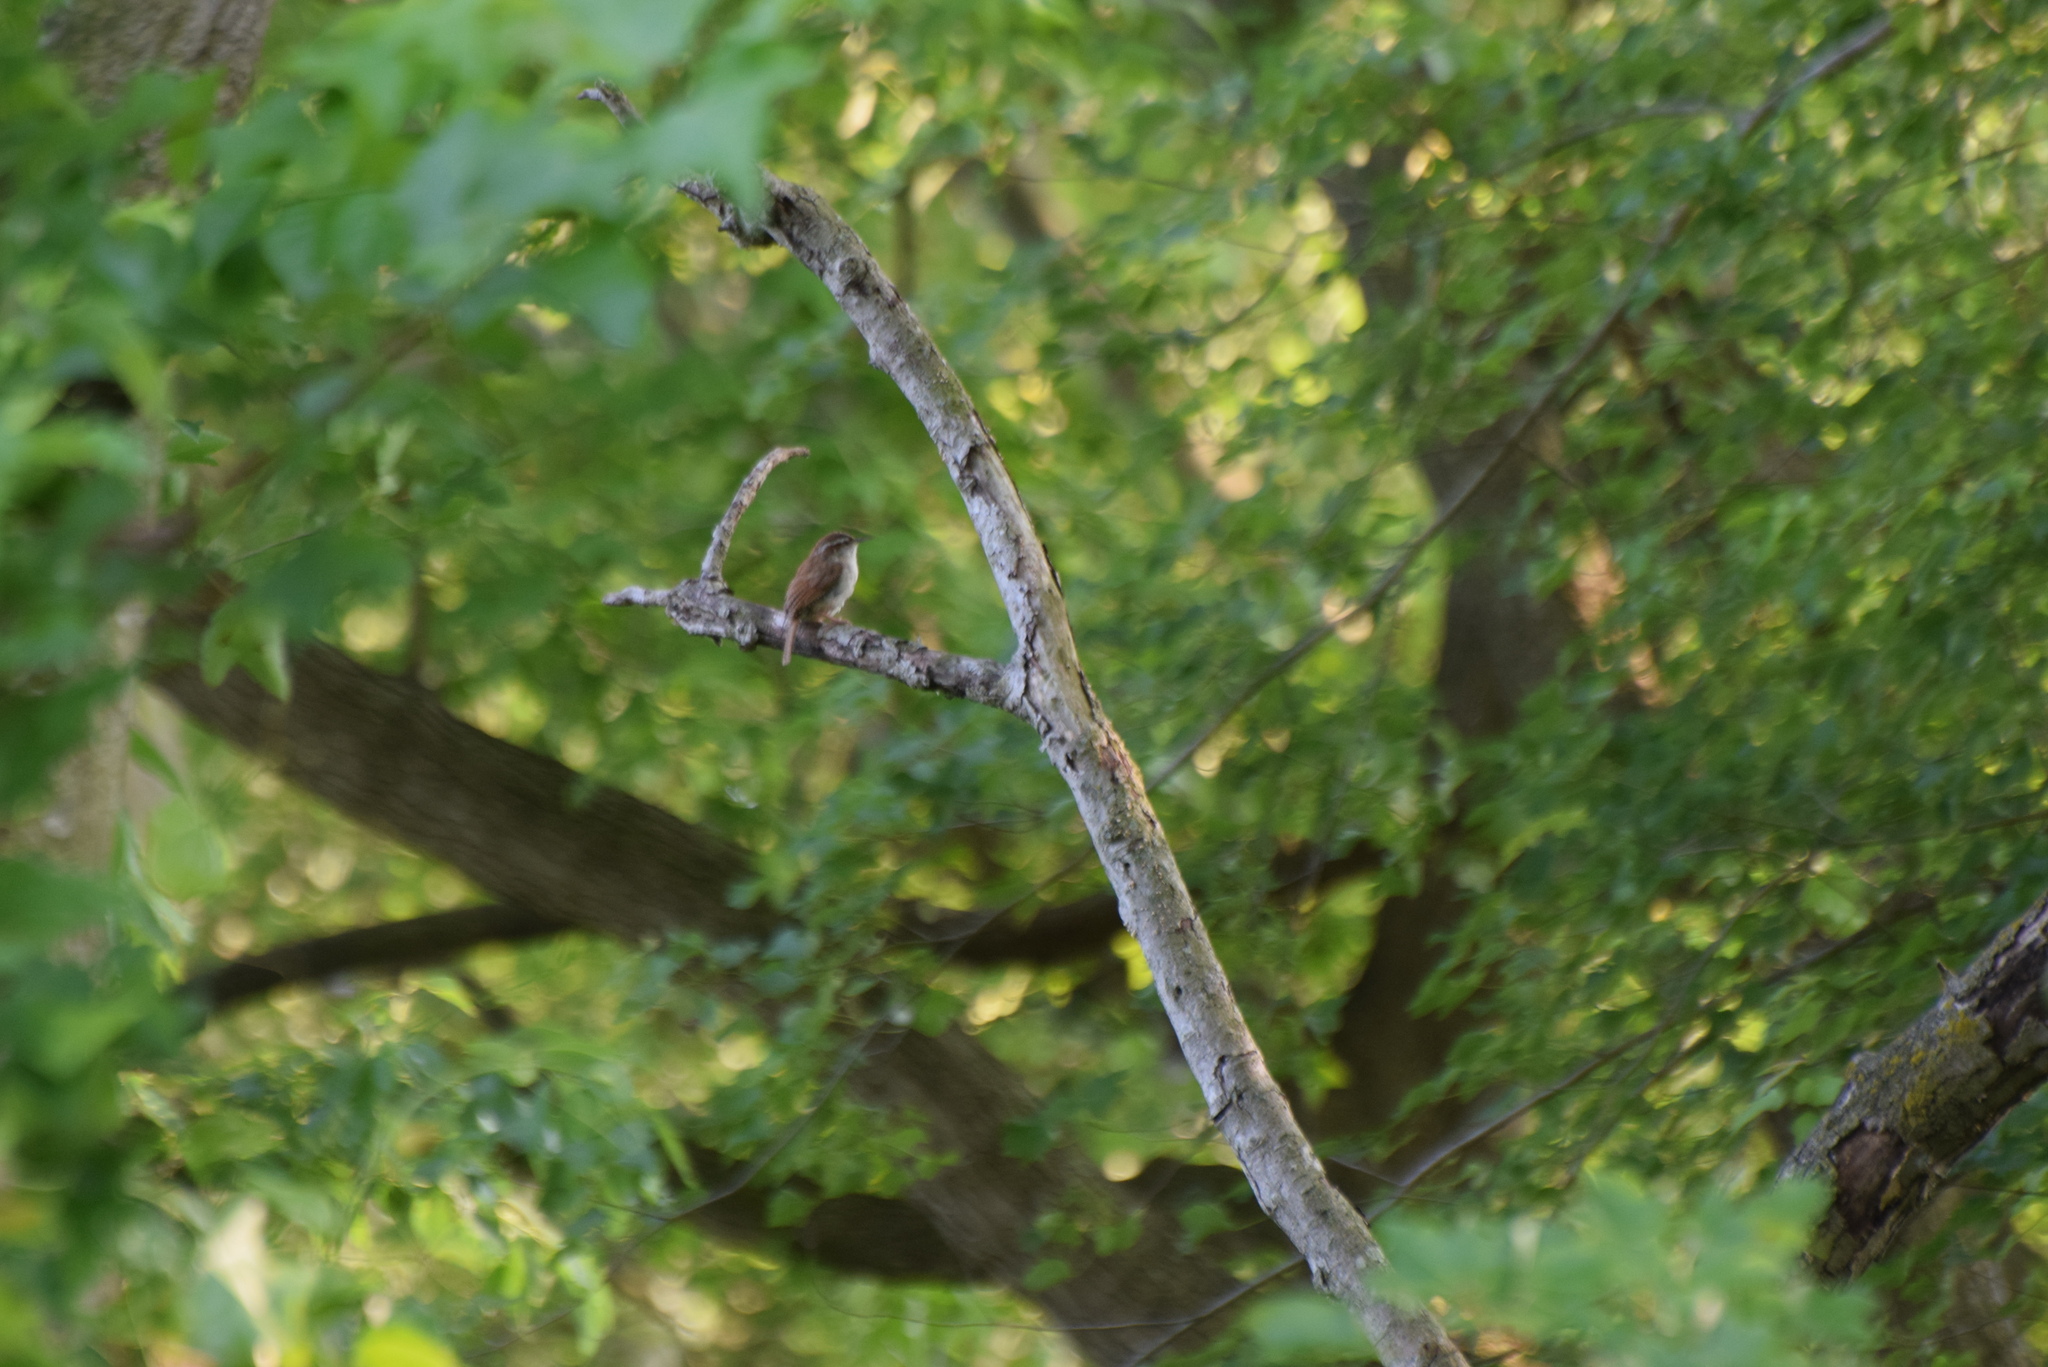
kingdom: Animalia
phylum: Chordata
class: Aves
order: Passeriformes
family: Troglodytidae
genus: Thryothorus
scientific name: Thryothorus ludovicianus
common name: Carolina wren
